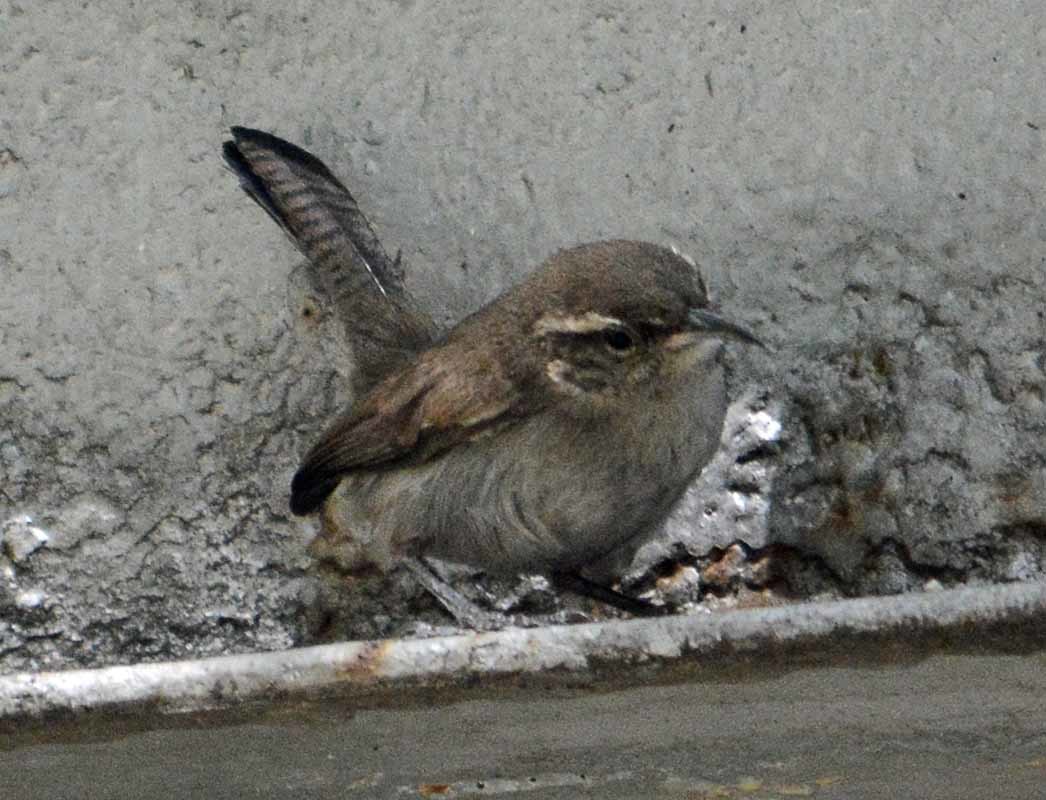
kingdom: Animalia
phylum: Chordata
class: Aves
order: Passeriformes
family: Troglodytidae
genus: Thryomanes
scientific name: Thryomanes bewickii
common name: Bewick's wren
